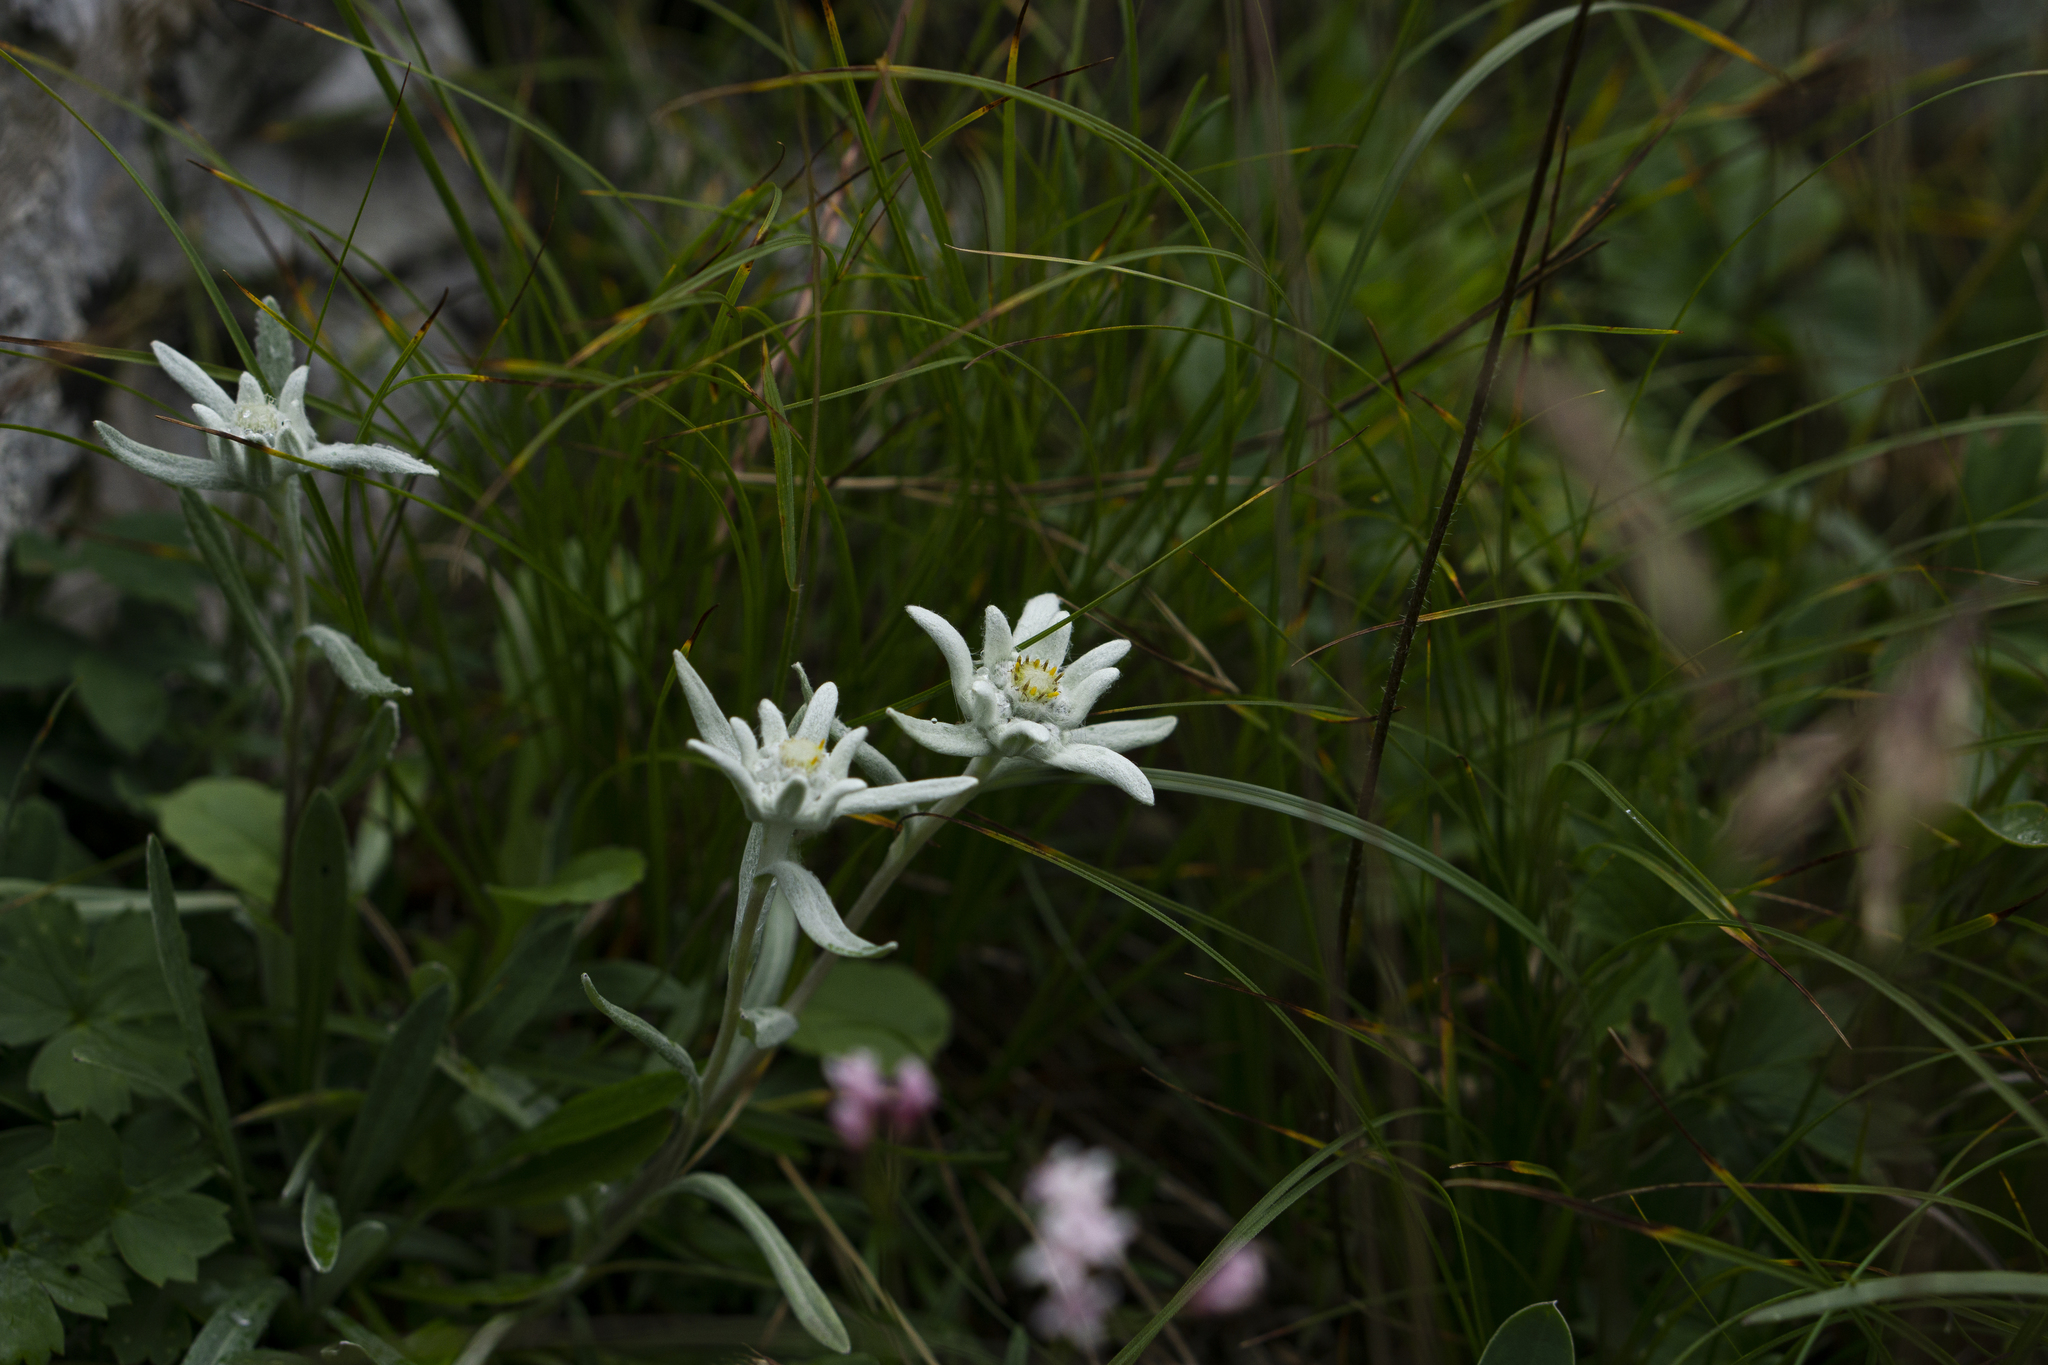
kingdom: Plantae
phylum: Tracheophyta
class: Magnoliopsida
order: Asterales
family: Asteraceae
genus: Leontopodium
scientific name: Leontopodium nivale
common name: Edelweiss
